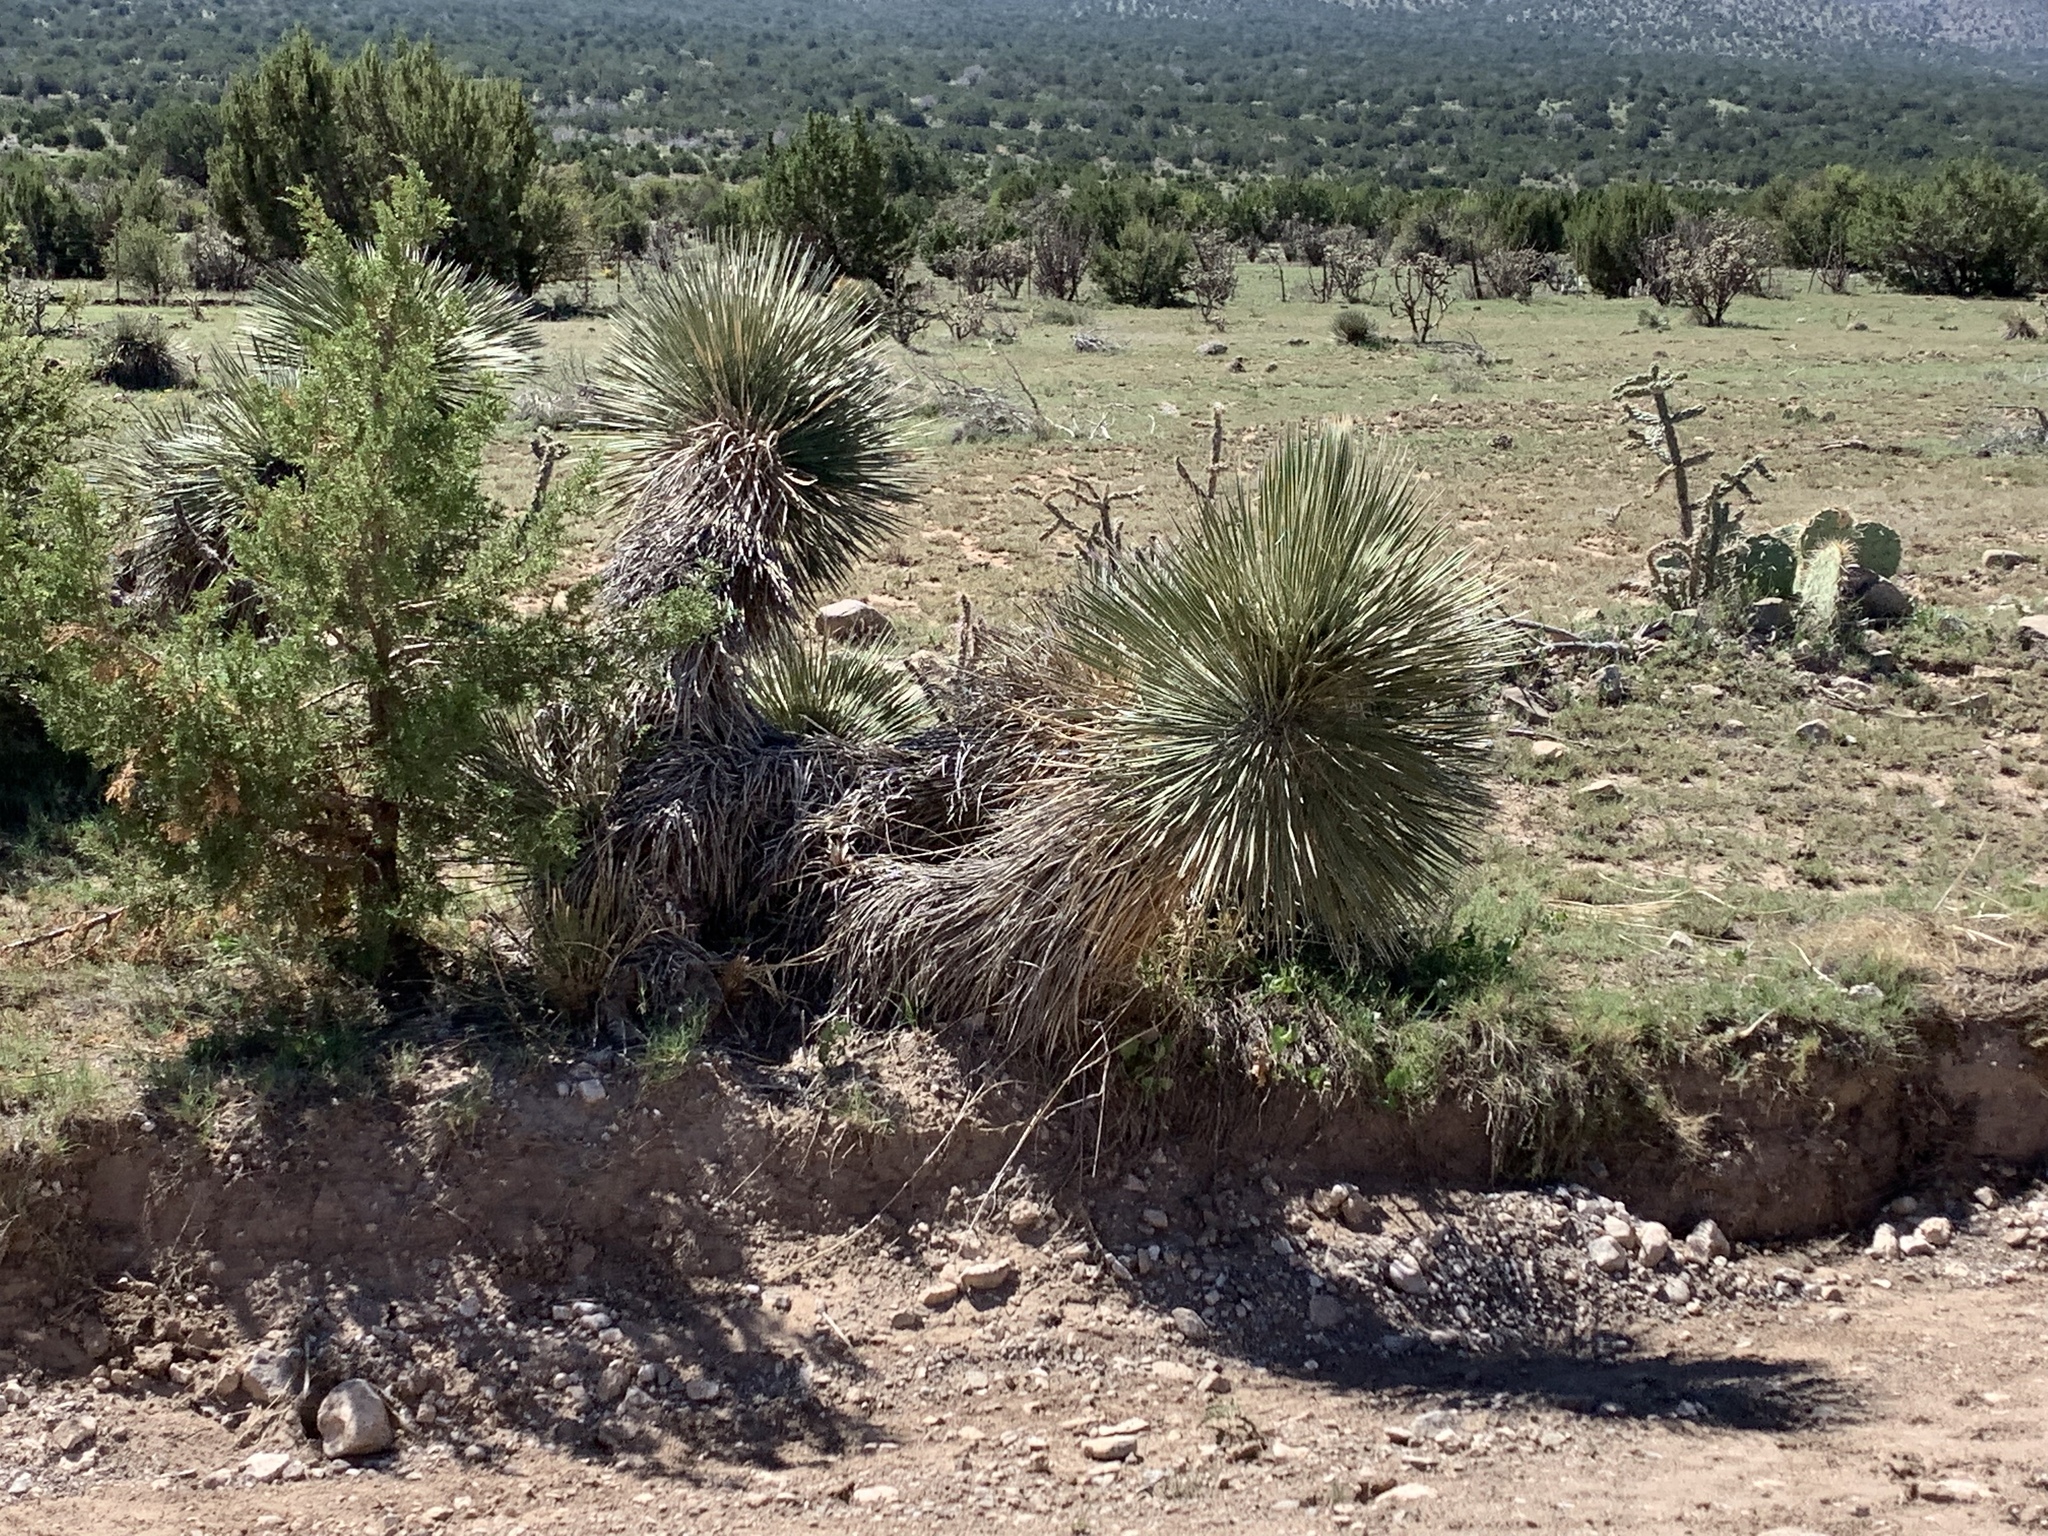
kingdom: Plantae
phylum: Tracheophyta
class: Liliopsida
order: Asparagales
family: Asparagaceae
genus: Yucca
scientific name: Yucca elata
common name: Palmella
